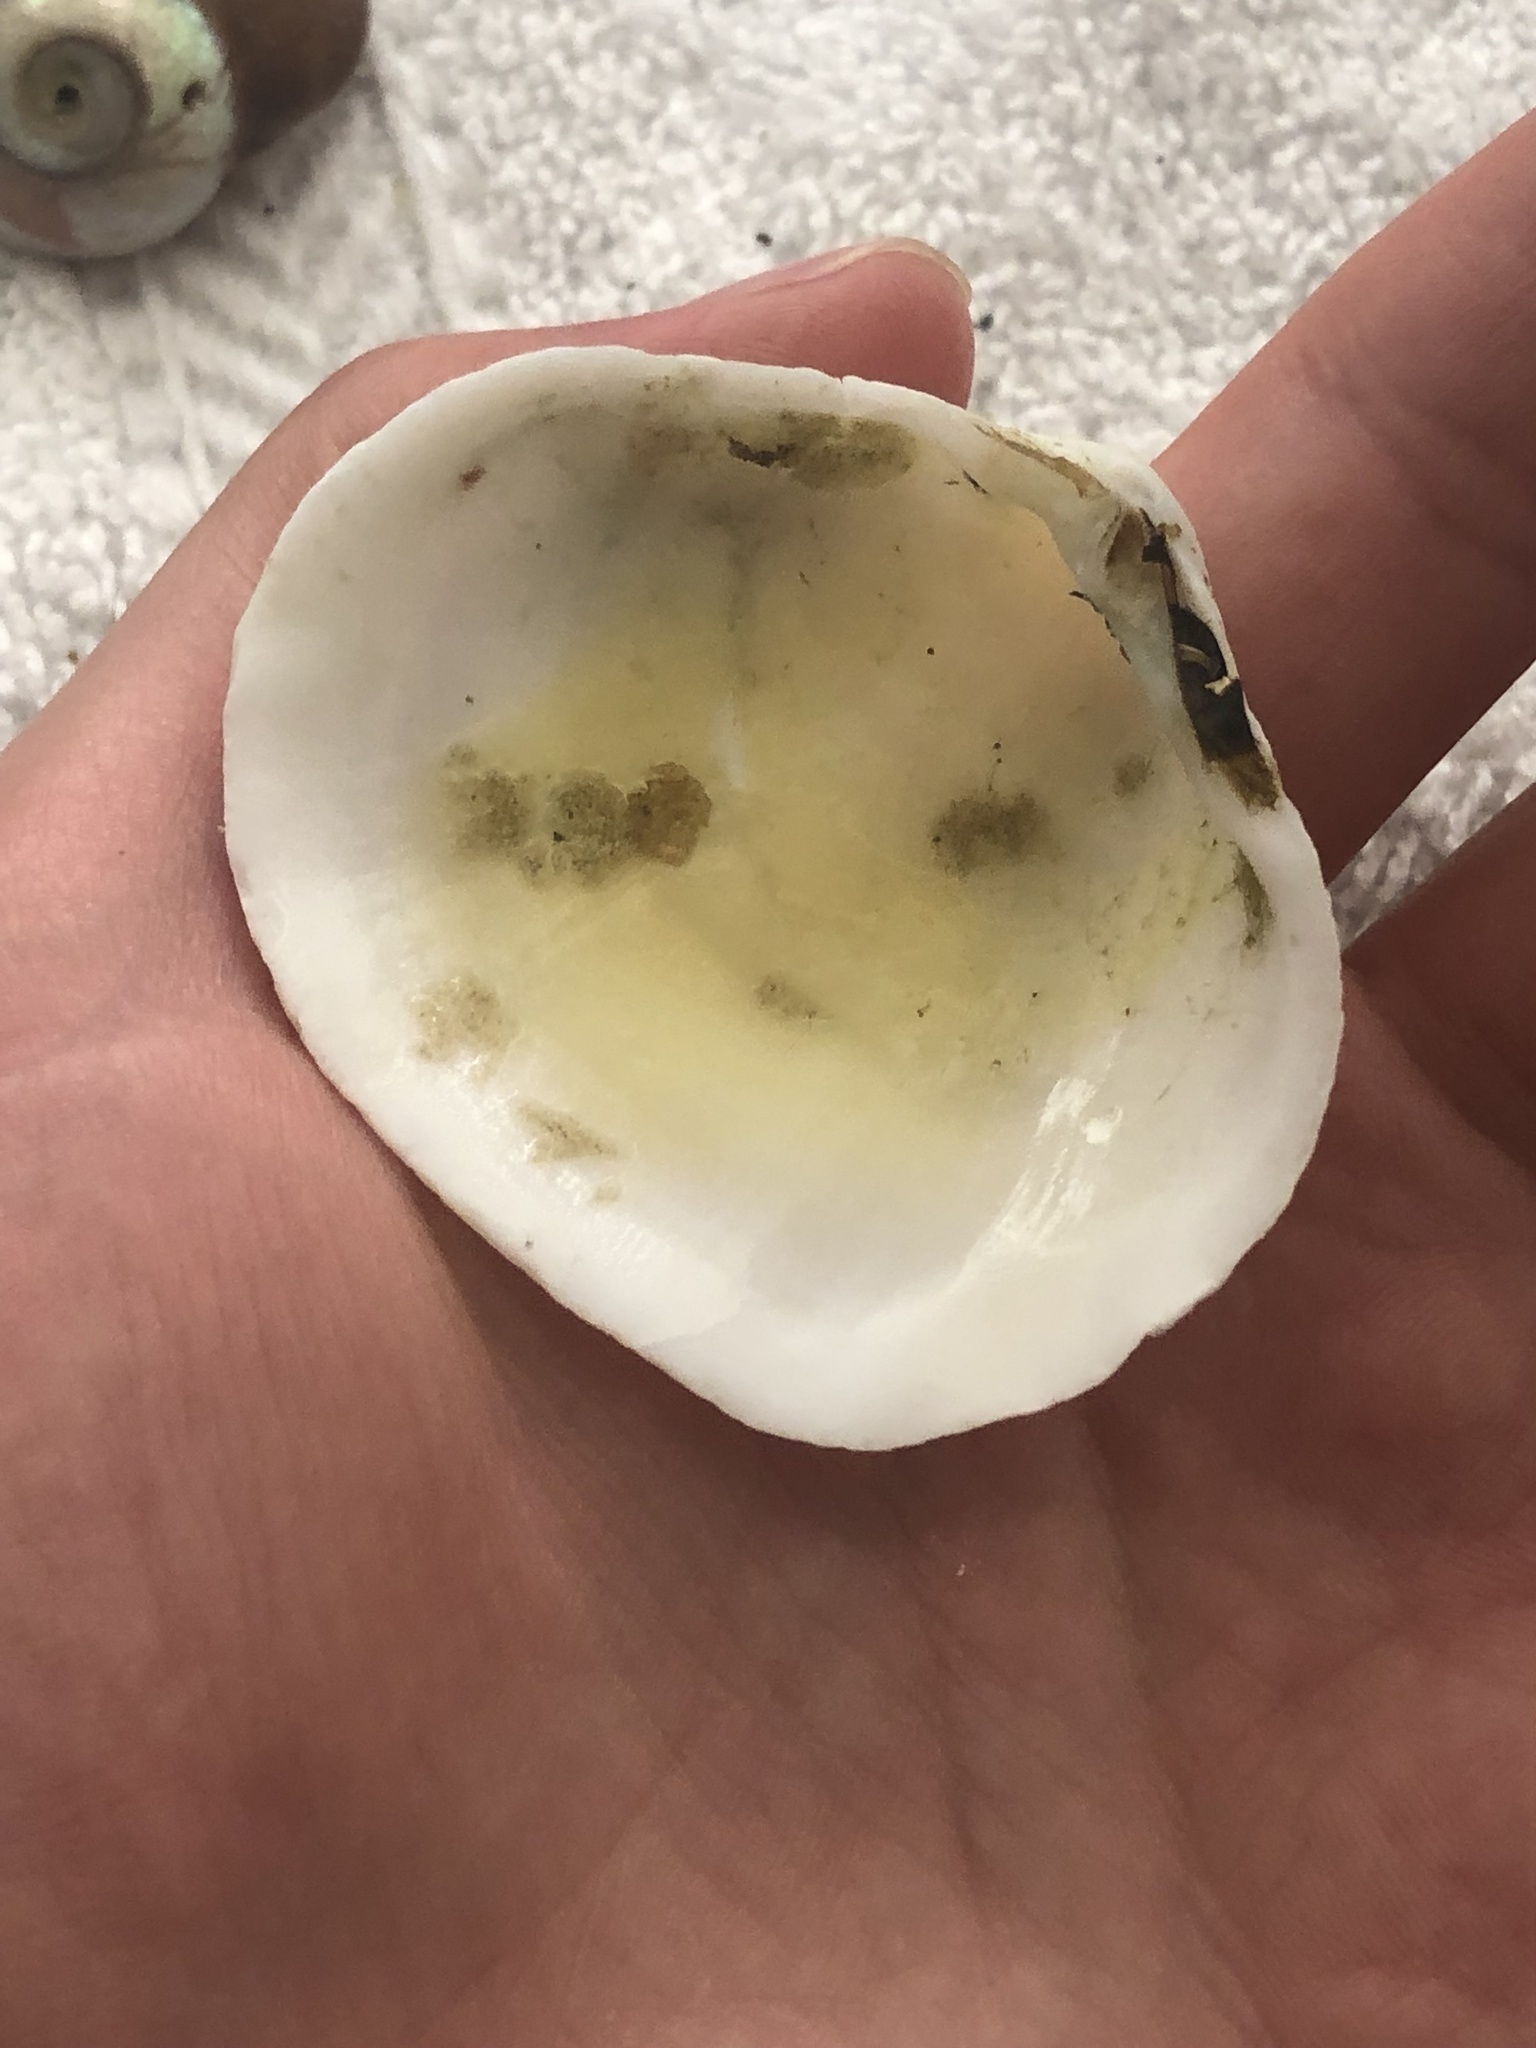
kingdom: Animalia
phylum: Mollusca
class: Bivalvia
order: Cardiida
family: Tellinidae
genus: Leporimetis
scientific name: Leporimetis obesa
